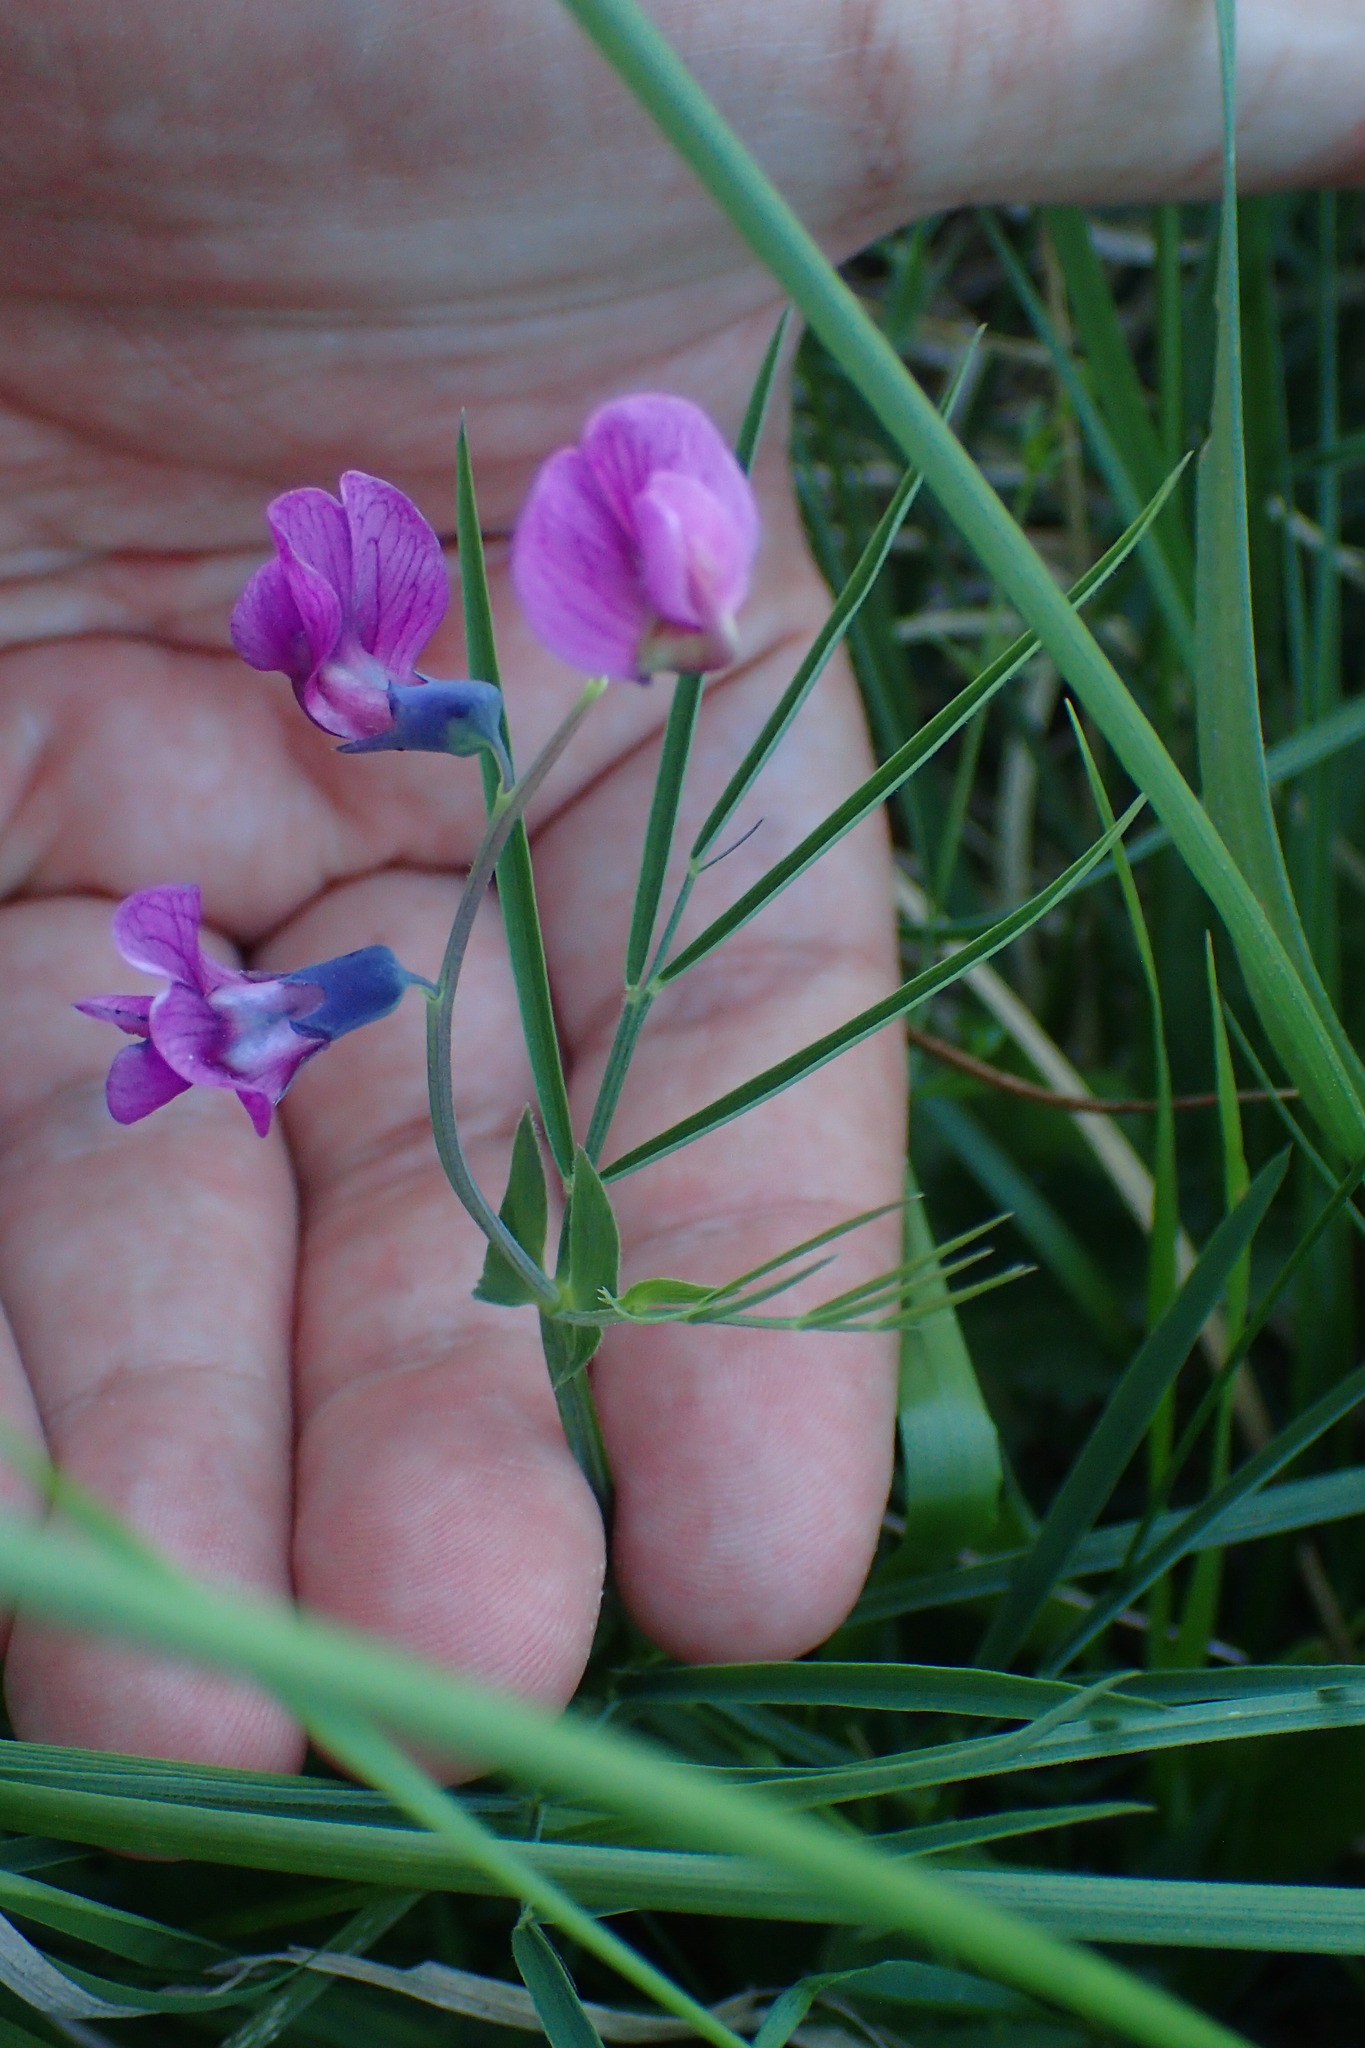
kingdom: Plantae
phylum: Tracheophyta
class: Magnoliopsida
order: Fabales
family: Fabaceae
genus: Lathyrus
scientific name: Lathyrus linifolius
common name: Bitter-vetch
